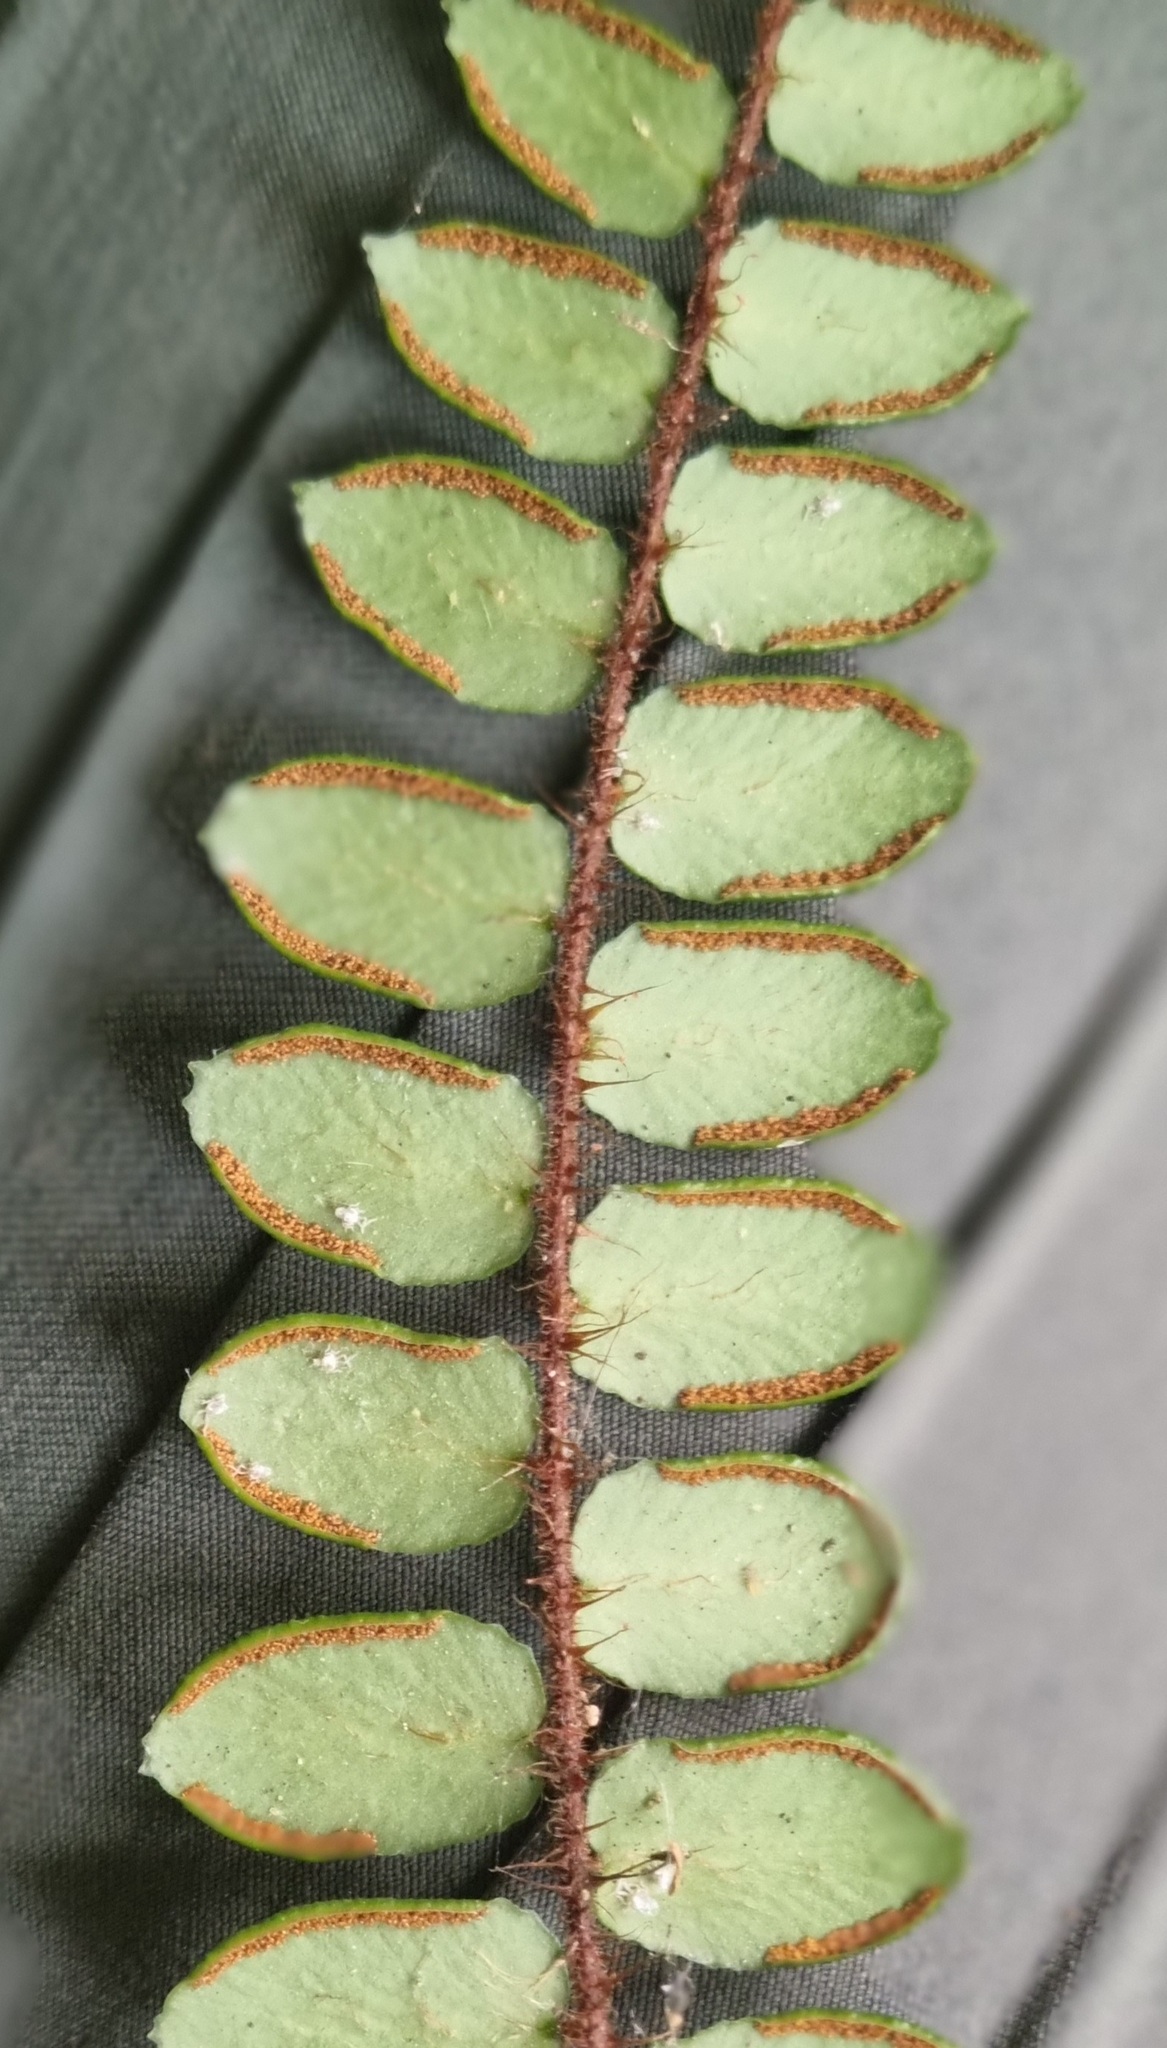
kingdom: Plantae
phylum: Tracheophyta
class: Polypodiopsida
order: Polypodiales
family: Pteridaceae
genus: Pellaea
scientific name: Pellaea rotundifolia
